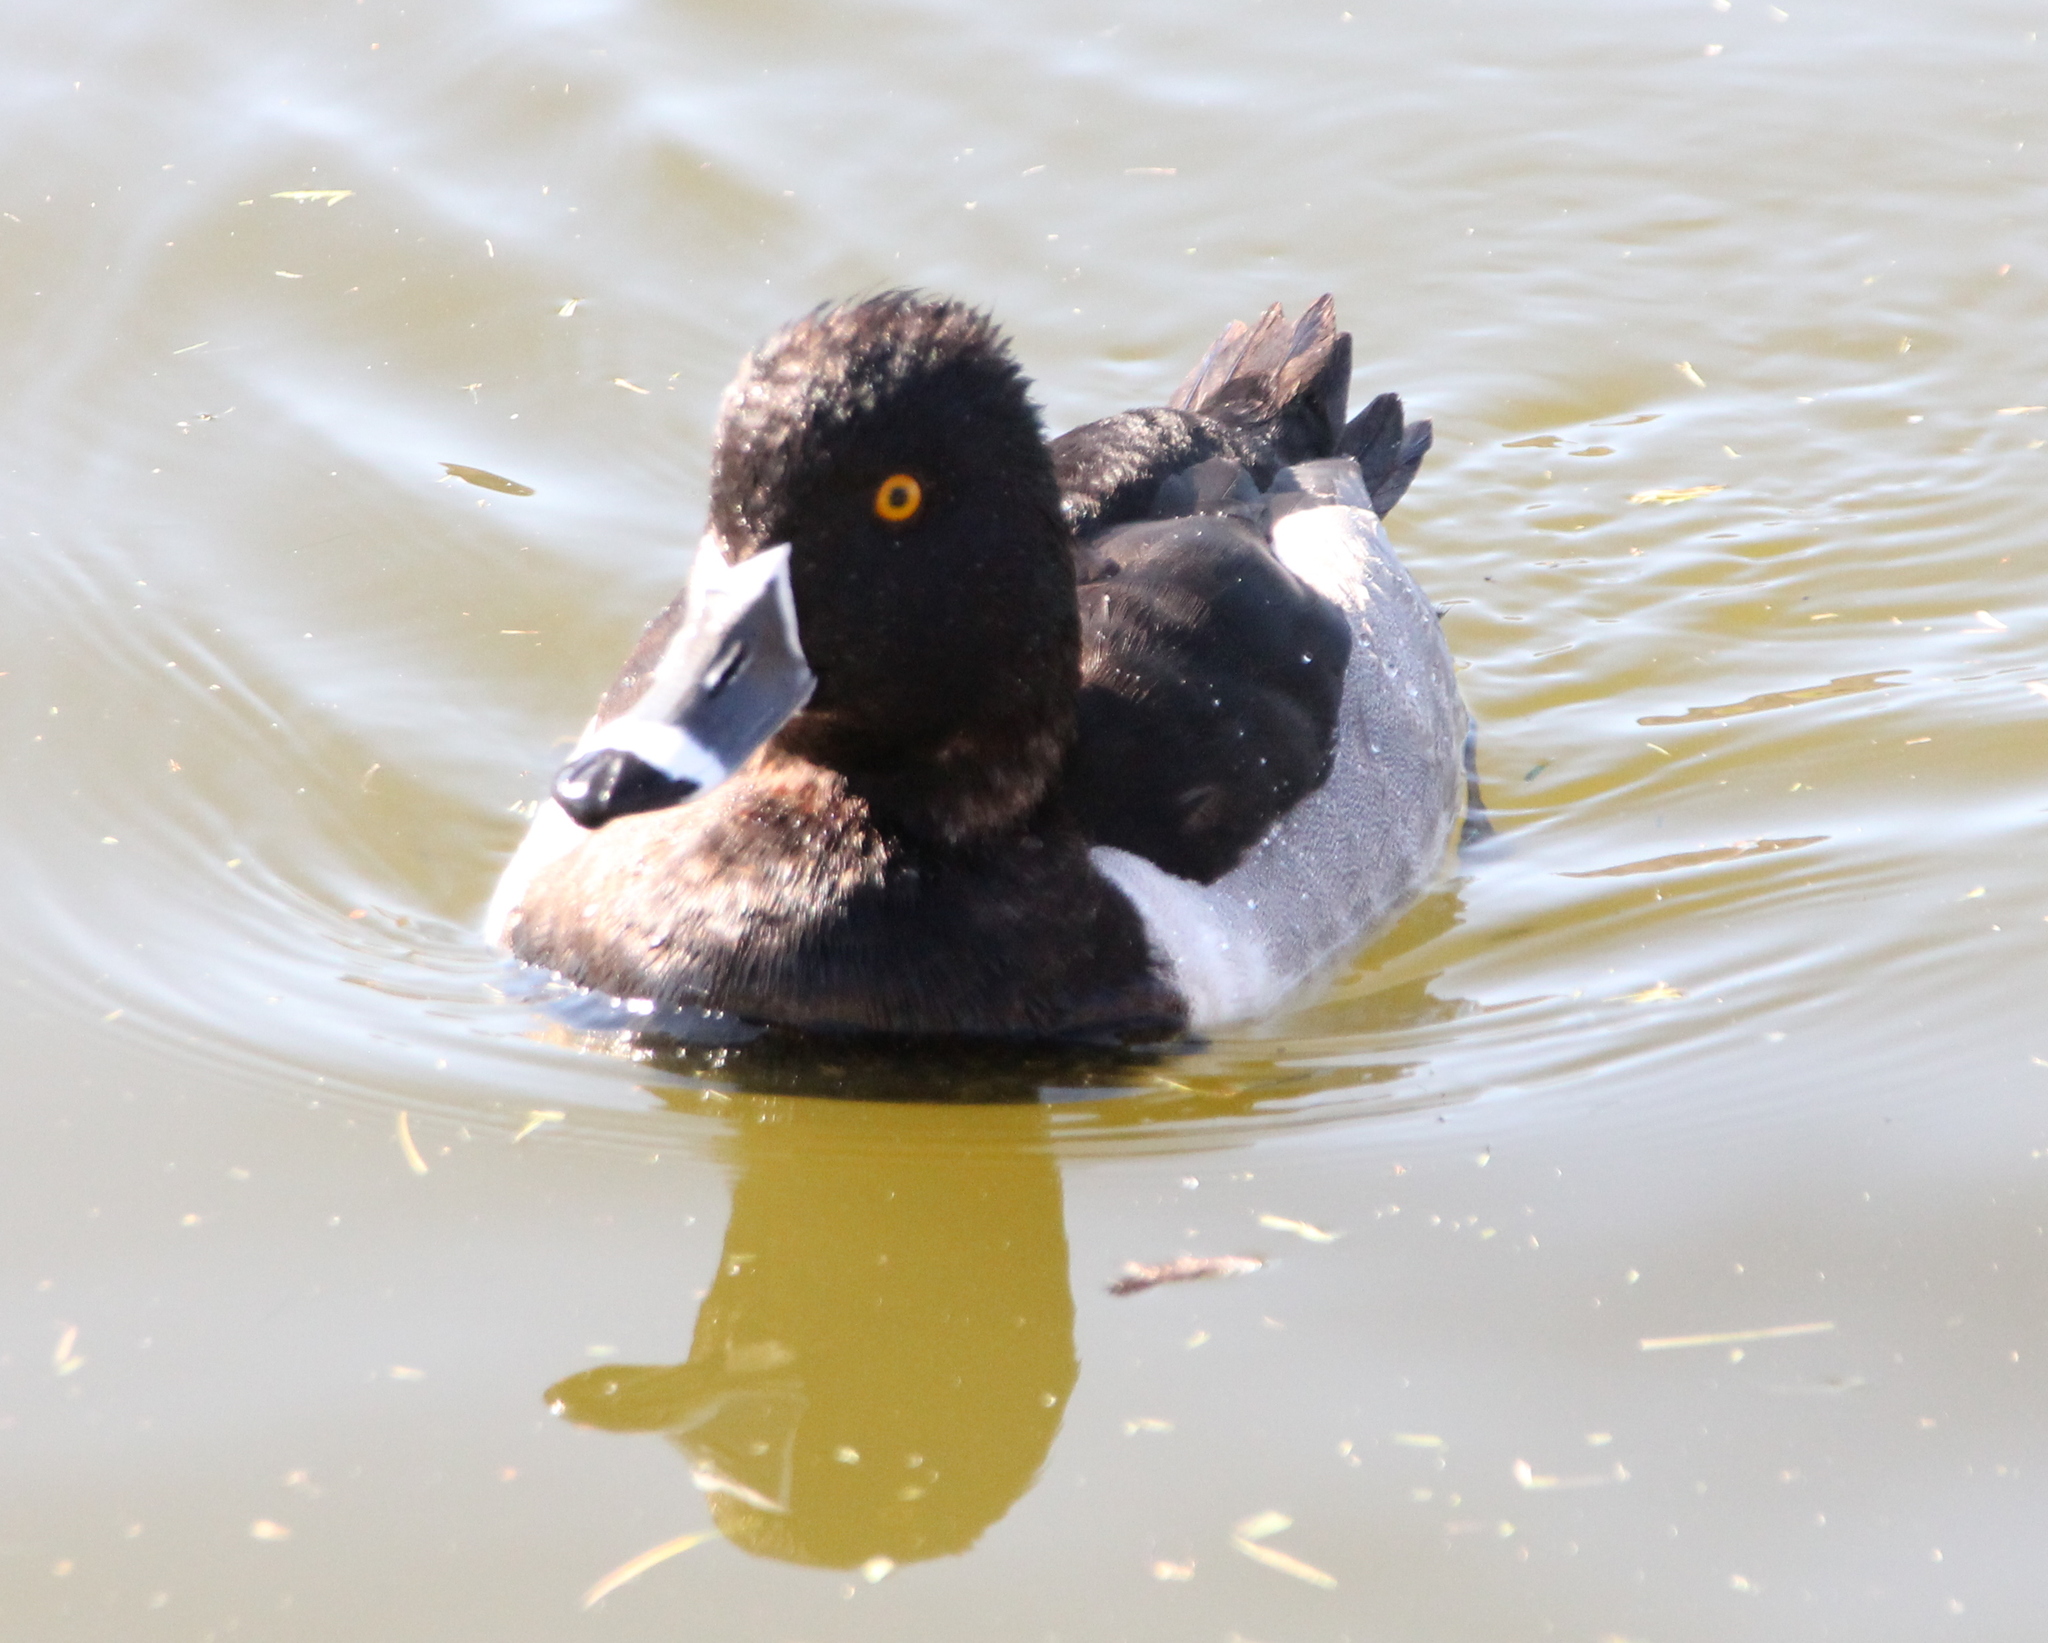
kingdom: Animalia
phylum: Chordata
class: Aves
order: Anseriformes
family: Anatidae
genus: Aythya
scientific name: Aythya collaris
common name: Ring-necked duck
